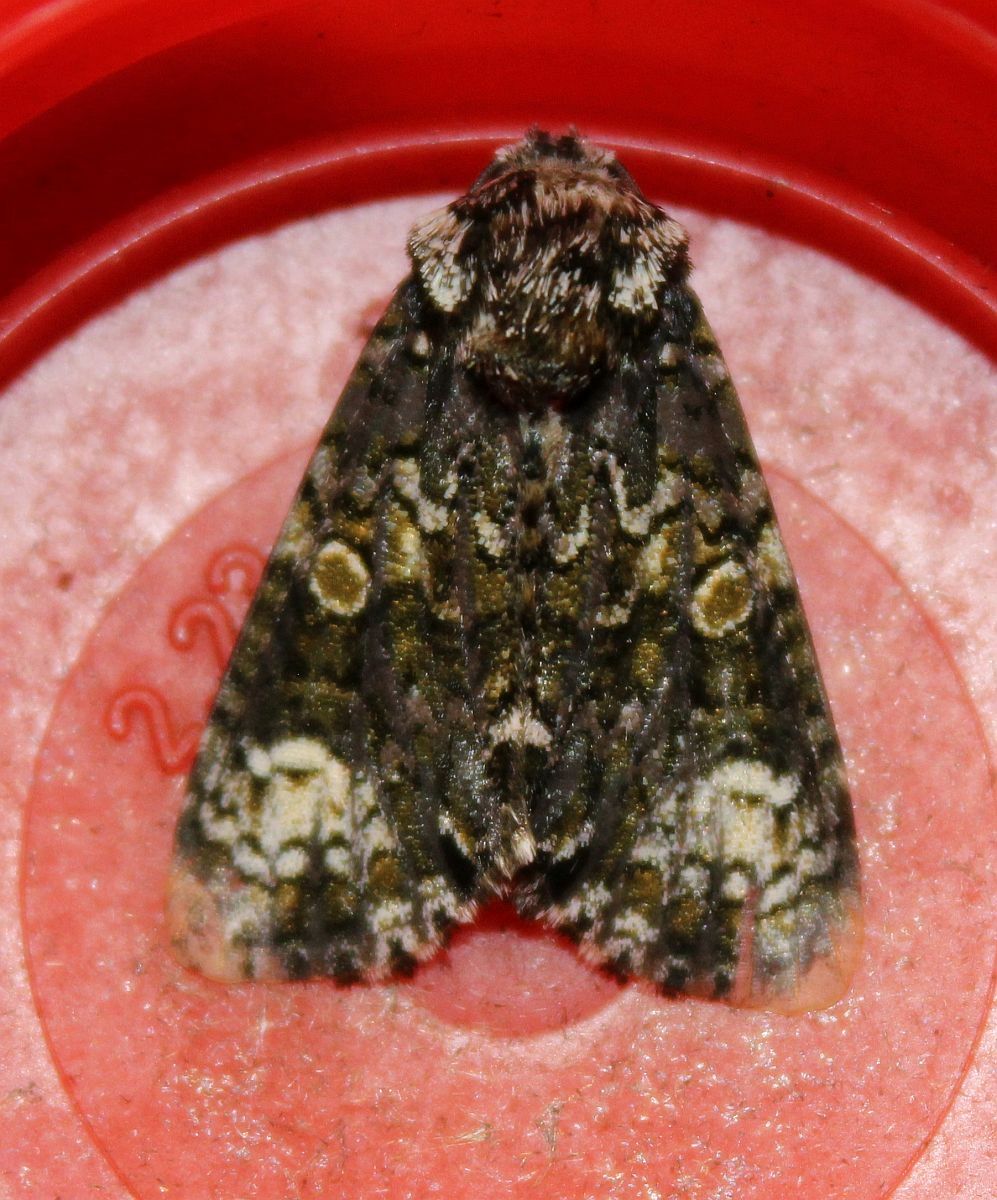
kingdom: Animalia
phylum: Arthropoda
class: Insecta
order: Lepidoptera
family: Noctuidae
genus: Craniophora
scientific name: Craniophora ligustri
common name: Coronet
